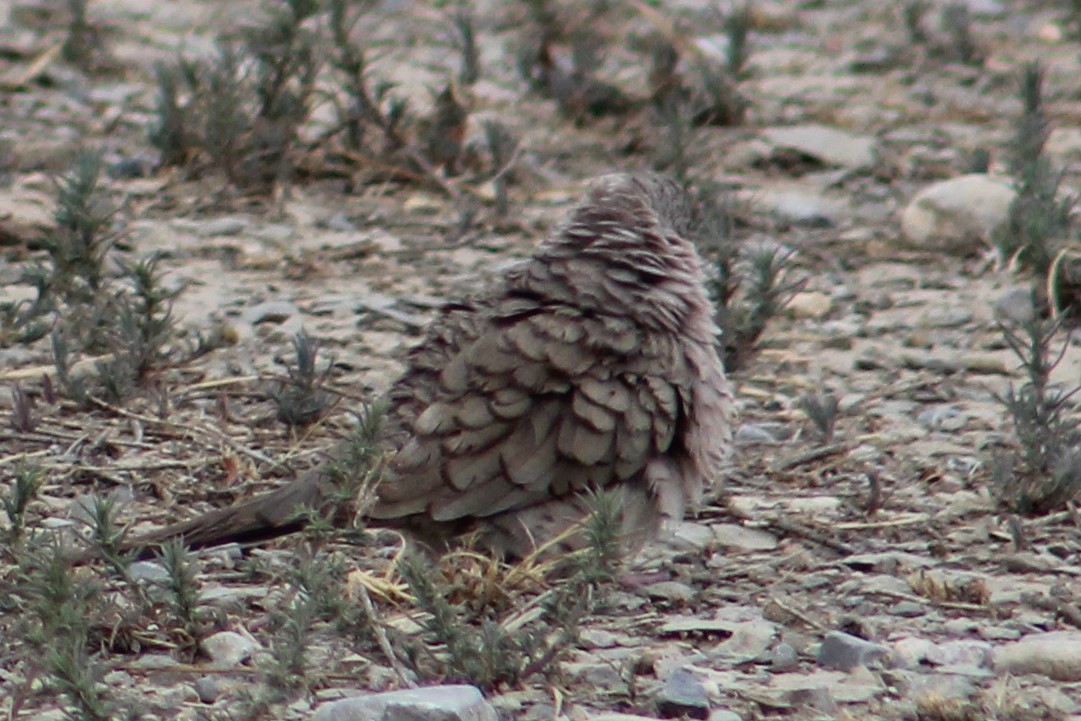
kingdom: Animalia
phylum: Chordata
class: Aves
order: Columbiformes
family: Columbidae
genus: Columbina
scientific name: Columbina inca
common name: Inca dove
